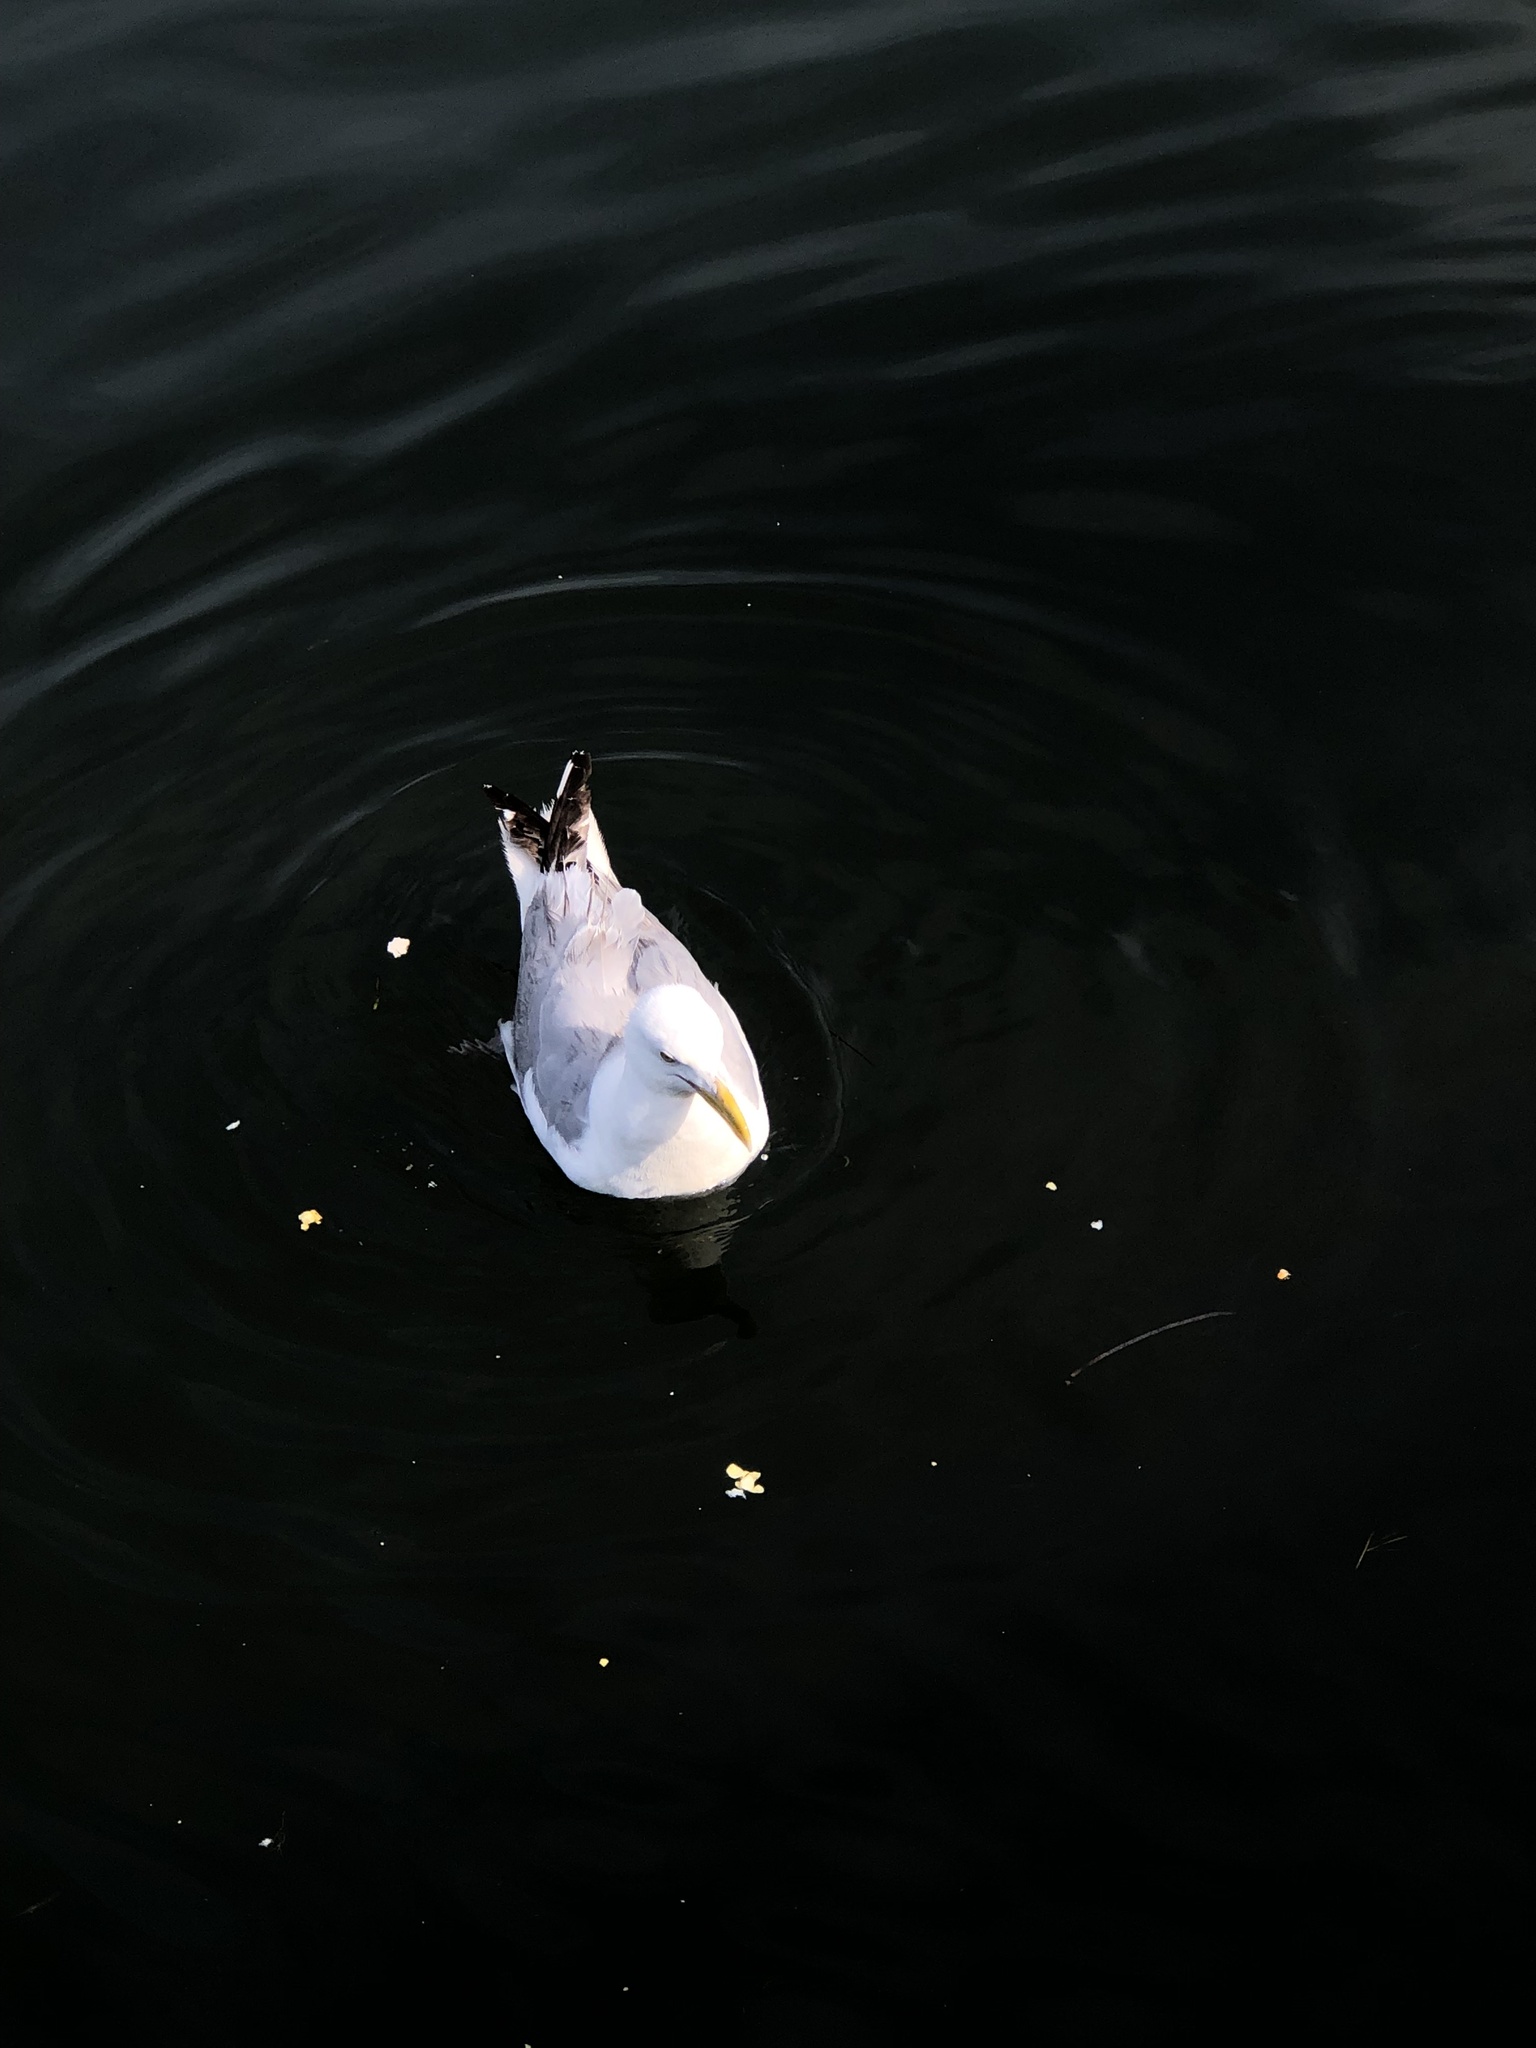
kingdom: Animalia
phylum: Chordata
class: Aves
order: Charadriiformes
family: Laridae
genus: Larus
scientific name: Larus argentatus
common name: Herring gull
